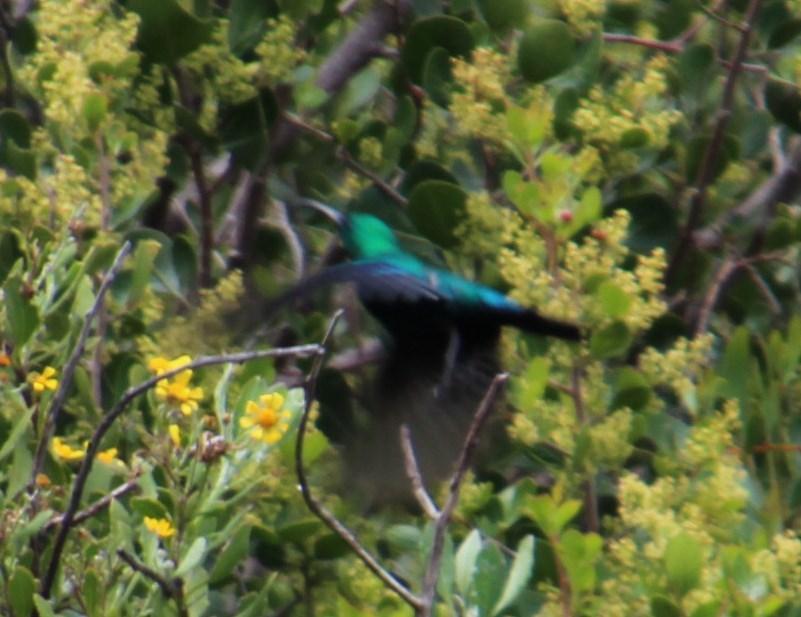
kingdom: Animalia
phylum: Chordata
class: Aves
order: Passeriformes
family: Nectariniidae
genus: Nectarinia
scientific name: Nectarinia famosa
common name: Malachite sunbird
